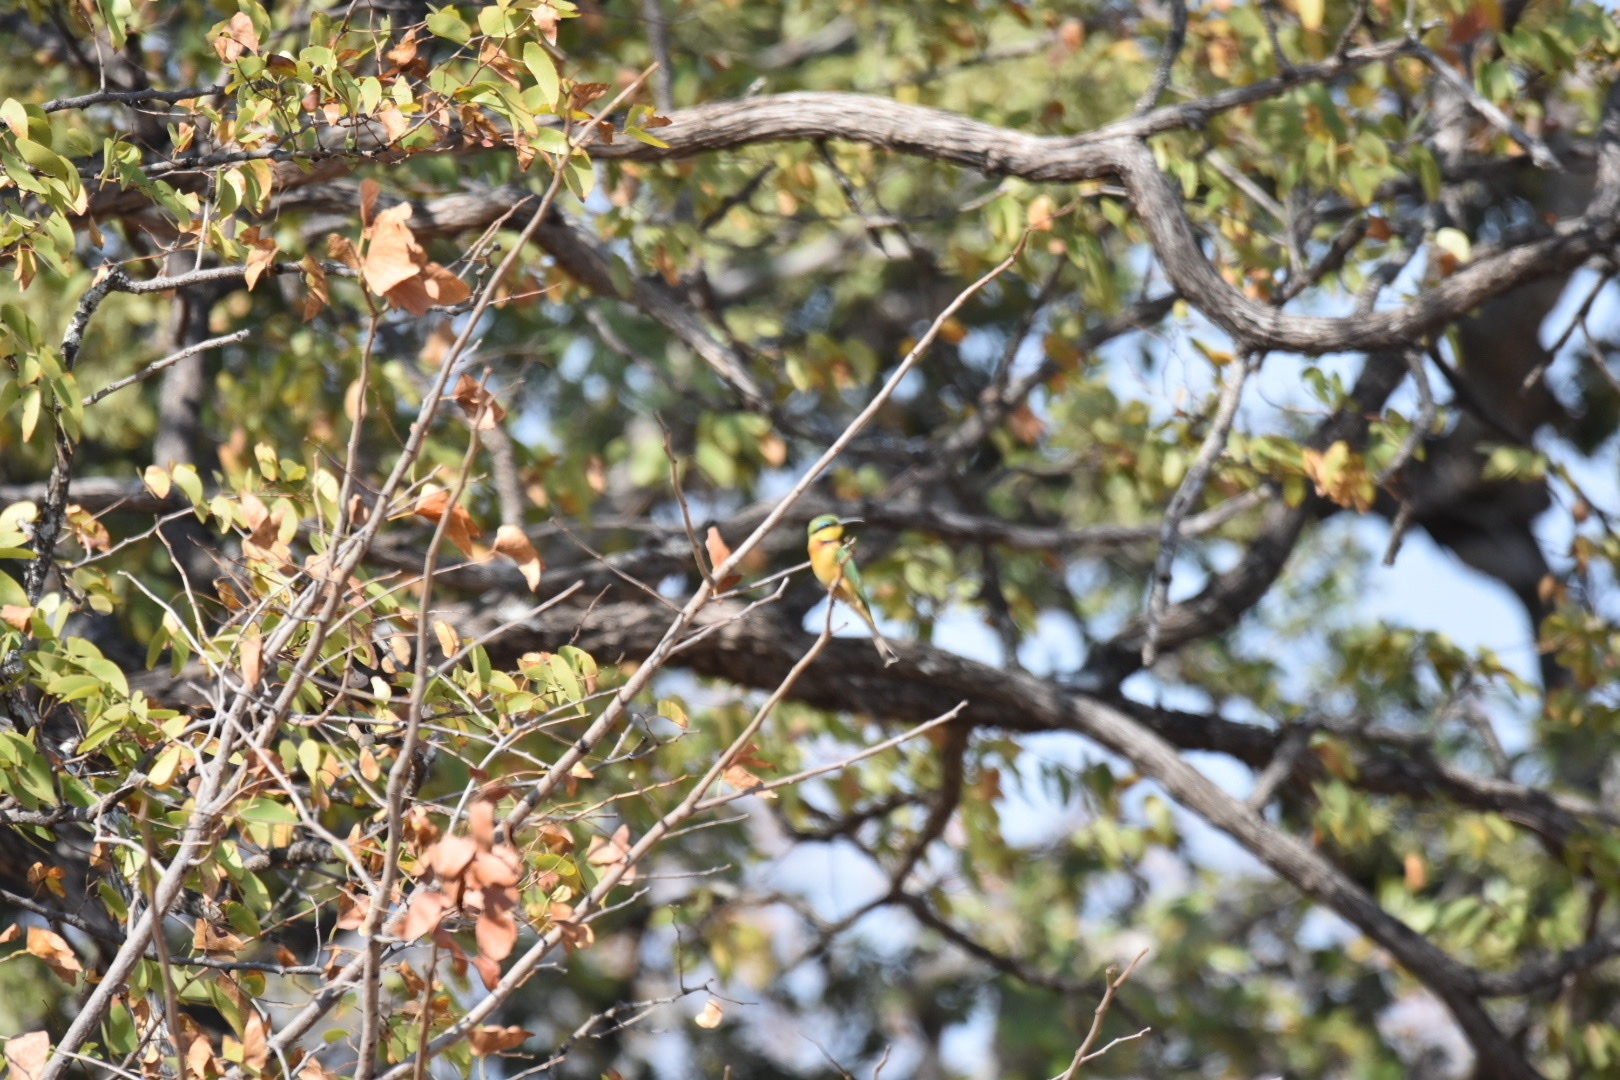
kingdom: Animalia
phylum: Chordata
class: Aves
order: Coraciiformes
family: Meropidae
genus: Merops
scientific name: Merops pusillus
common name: Little bee-eater
